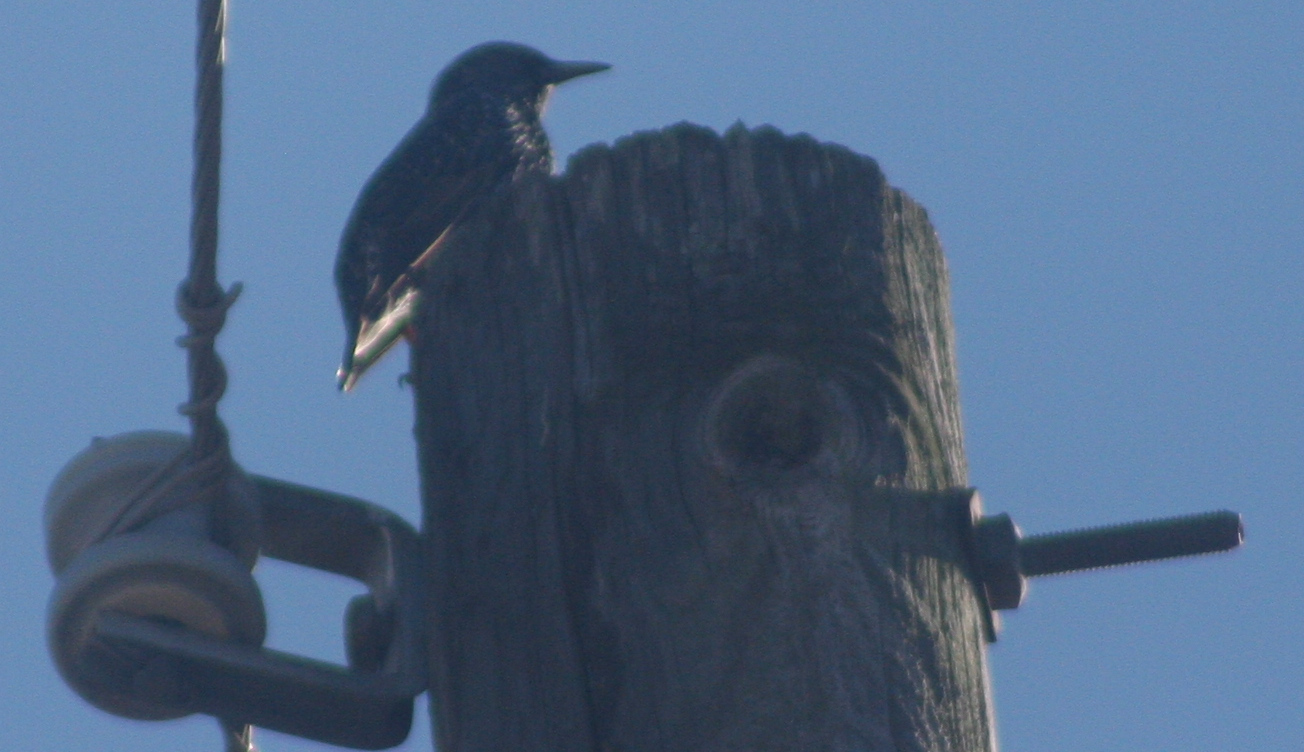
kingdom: Animalia
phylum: Chordata
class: Aves
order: Passeriformes
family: Sturnidae
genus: Sturnus
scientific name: Sturnus vulgaris
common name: Common starling
